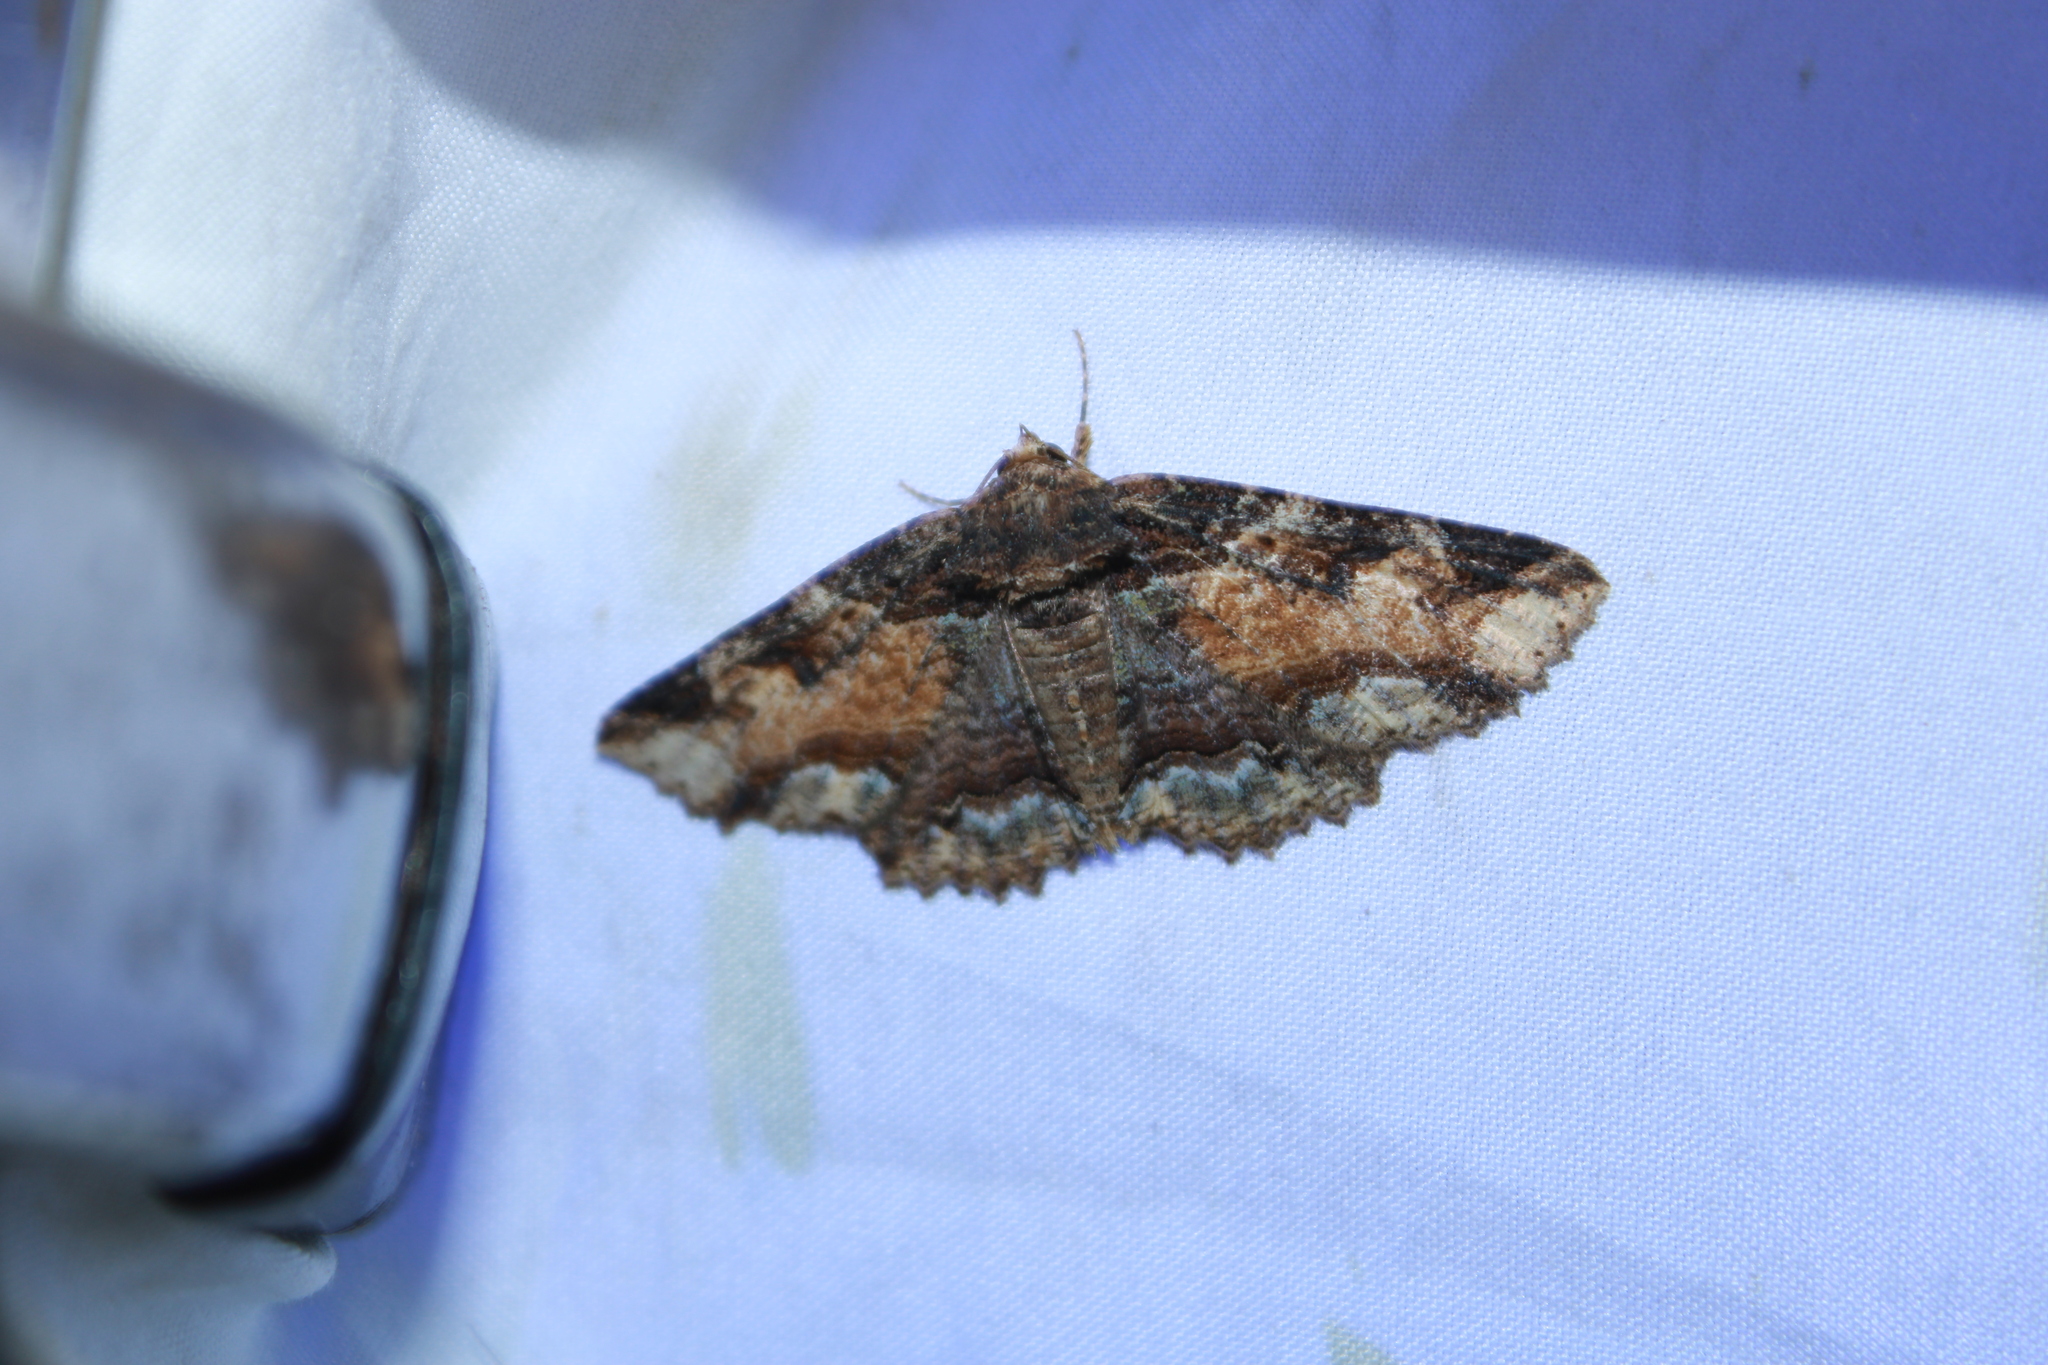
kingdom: Animalia
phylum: Arthropoda
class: Insecta
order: Lepidoptera
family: Erebidae
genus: Zale
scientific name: Zale minerea
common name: Colorful zale moth
